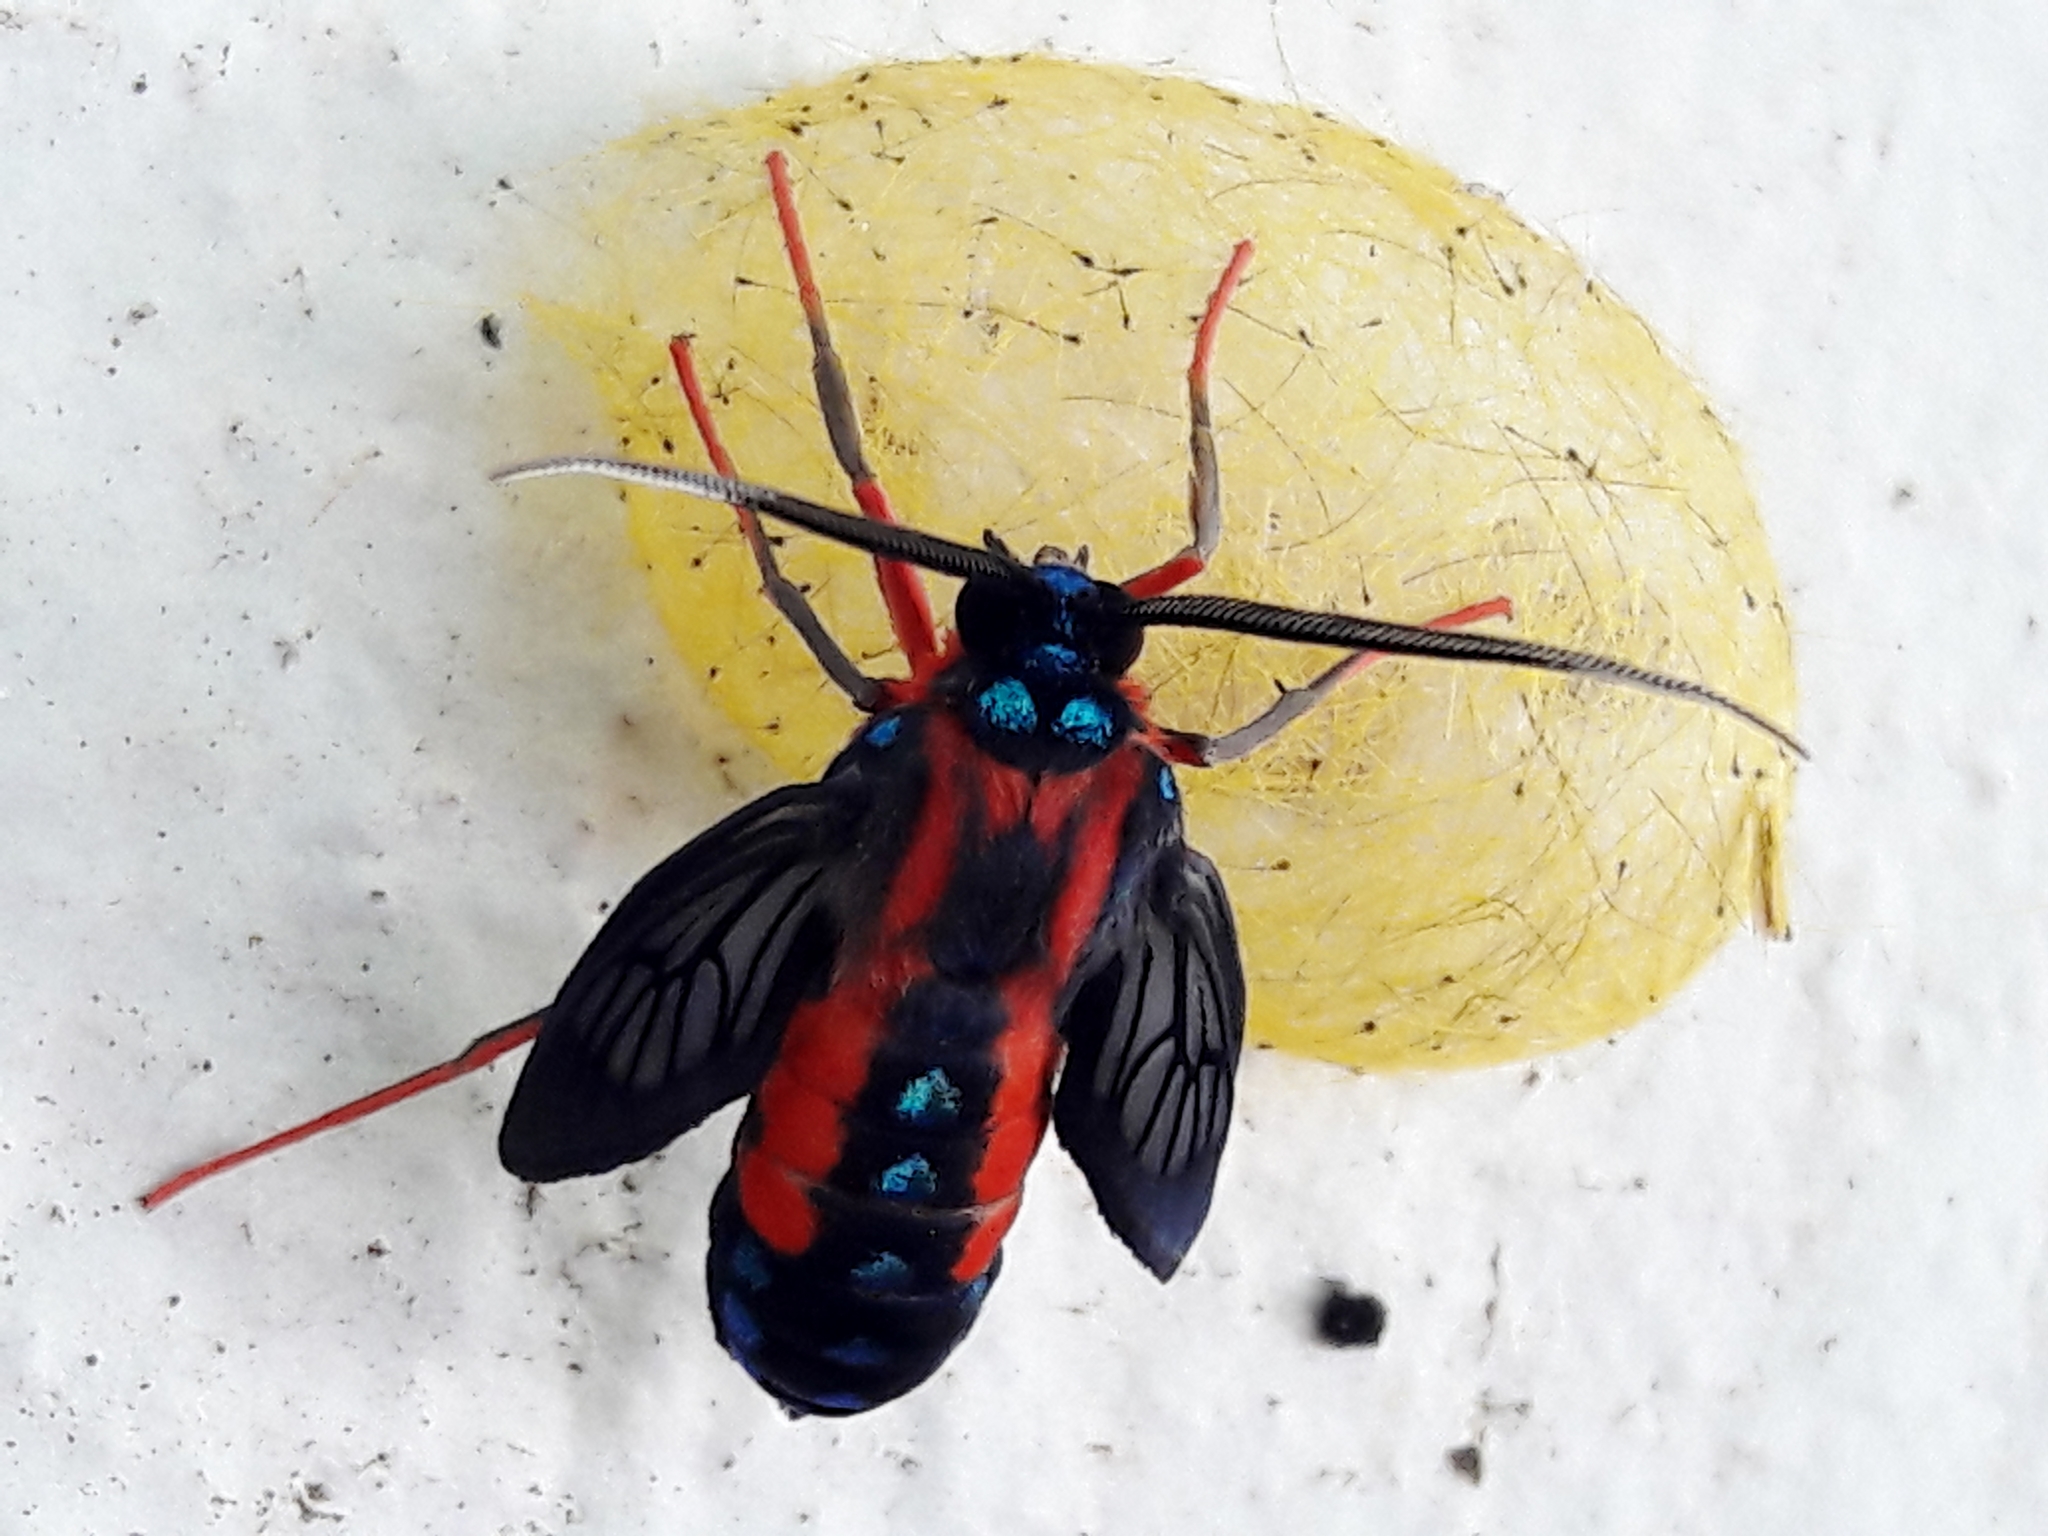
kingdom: Animalia
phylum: Arthropoda
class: Insecta
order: Lepidoptera
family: Erebidae
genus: Cosmosoma
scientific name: Cosmosoma auge
